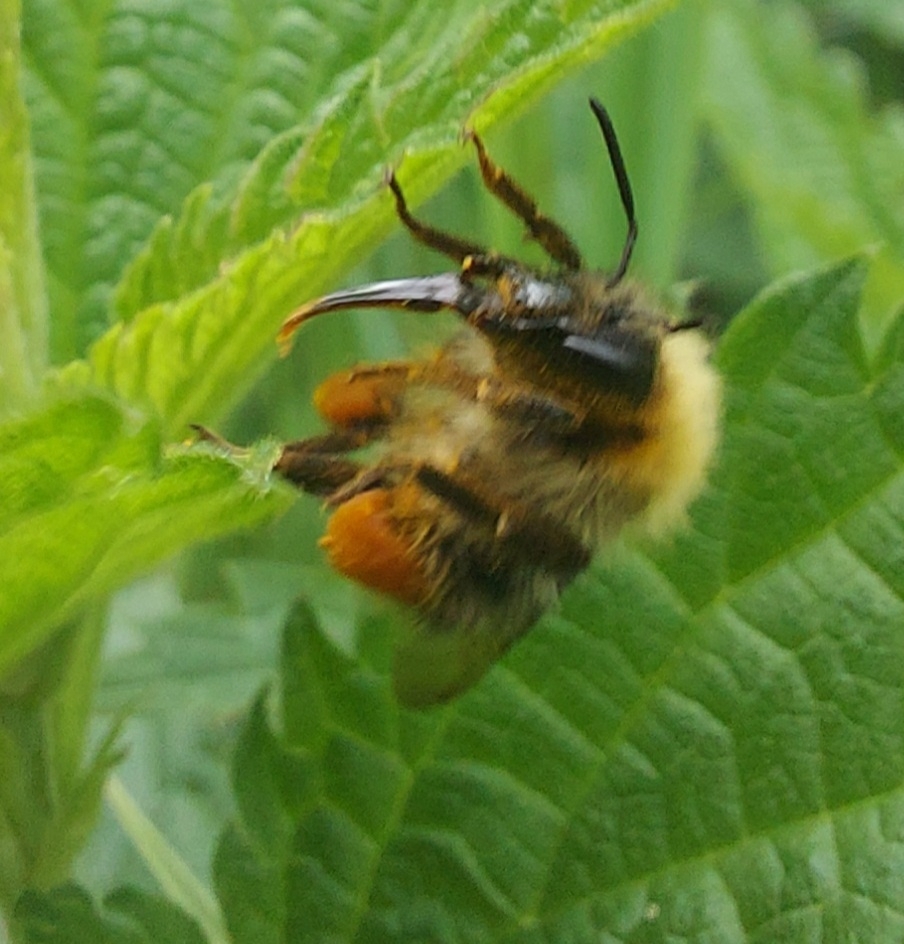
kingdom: Animalia
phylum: Arthropoda
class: Insecta
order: Hymenoptera
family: Apidae
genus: Bombus
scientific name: Bombus
